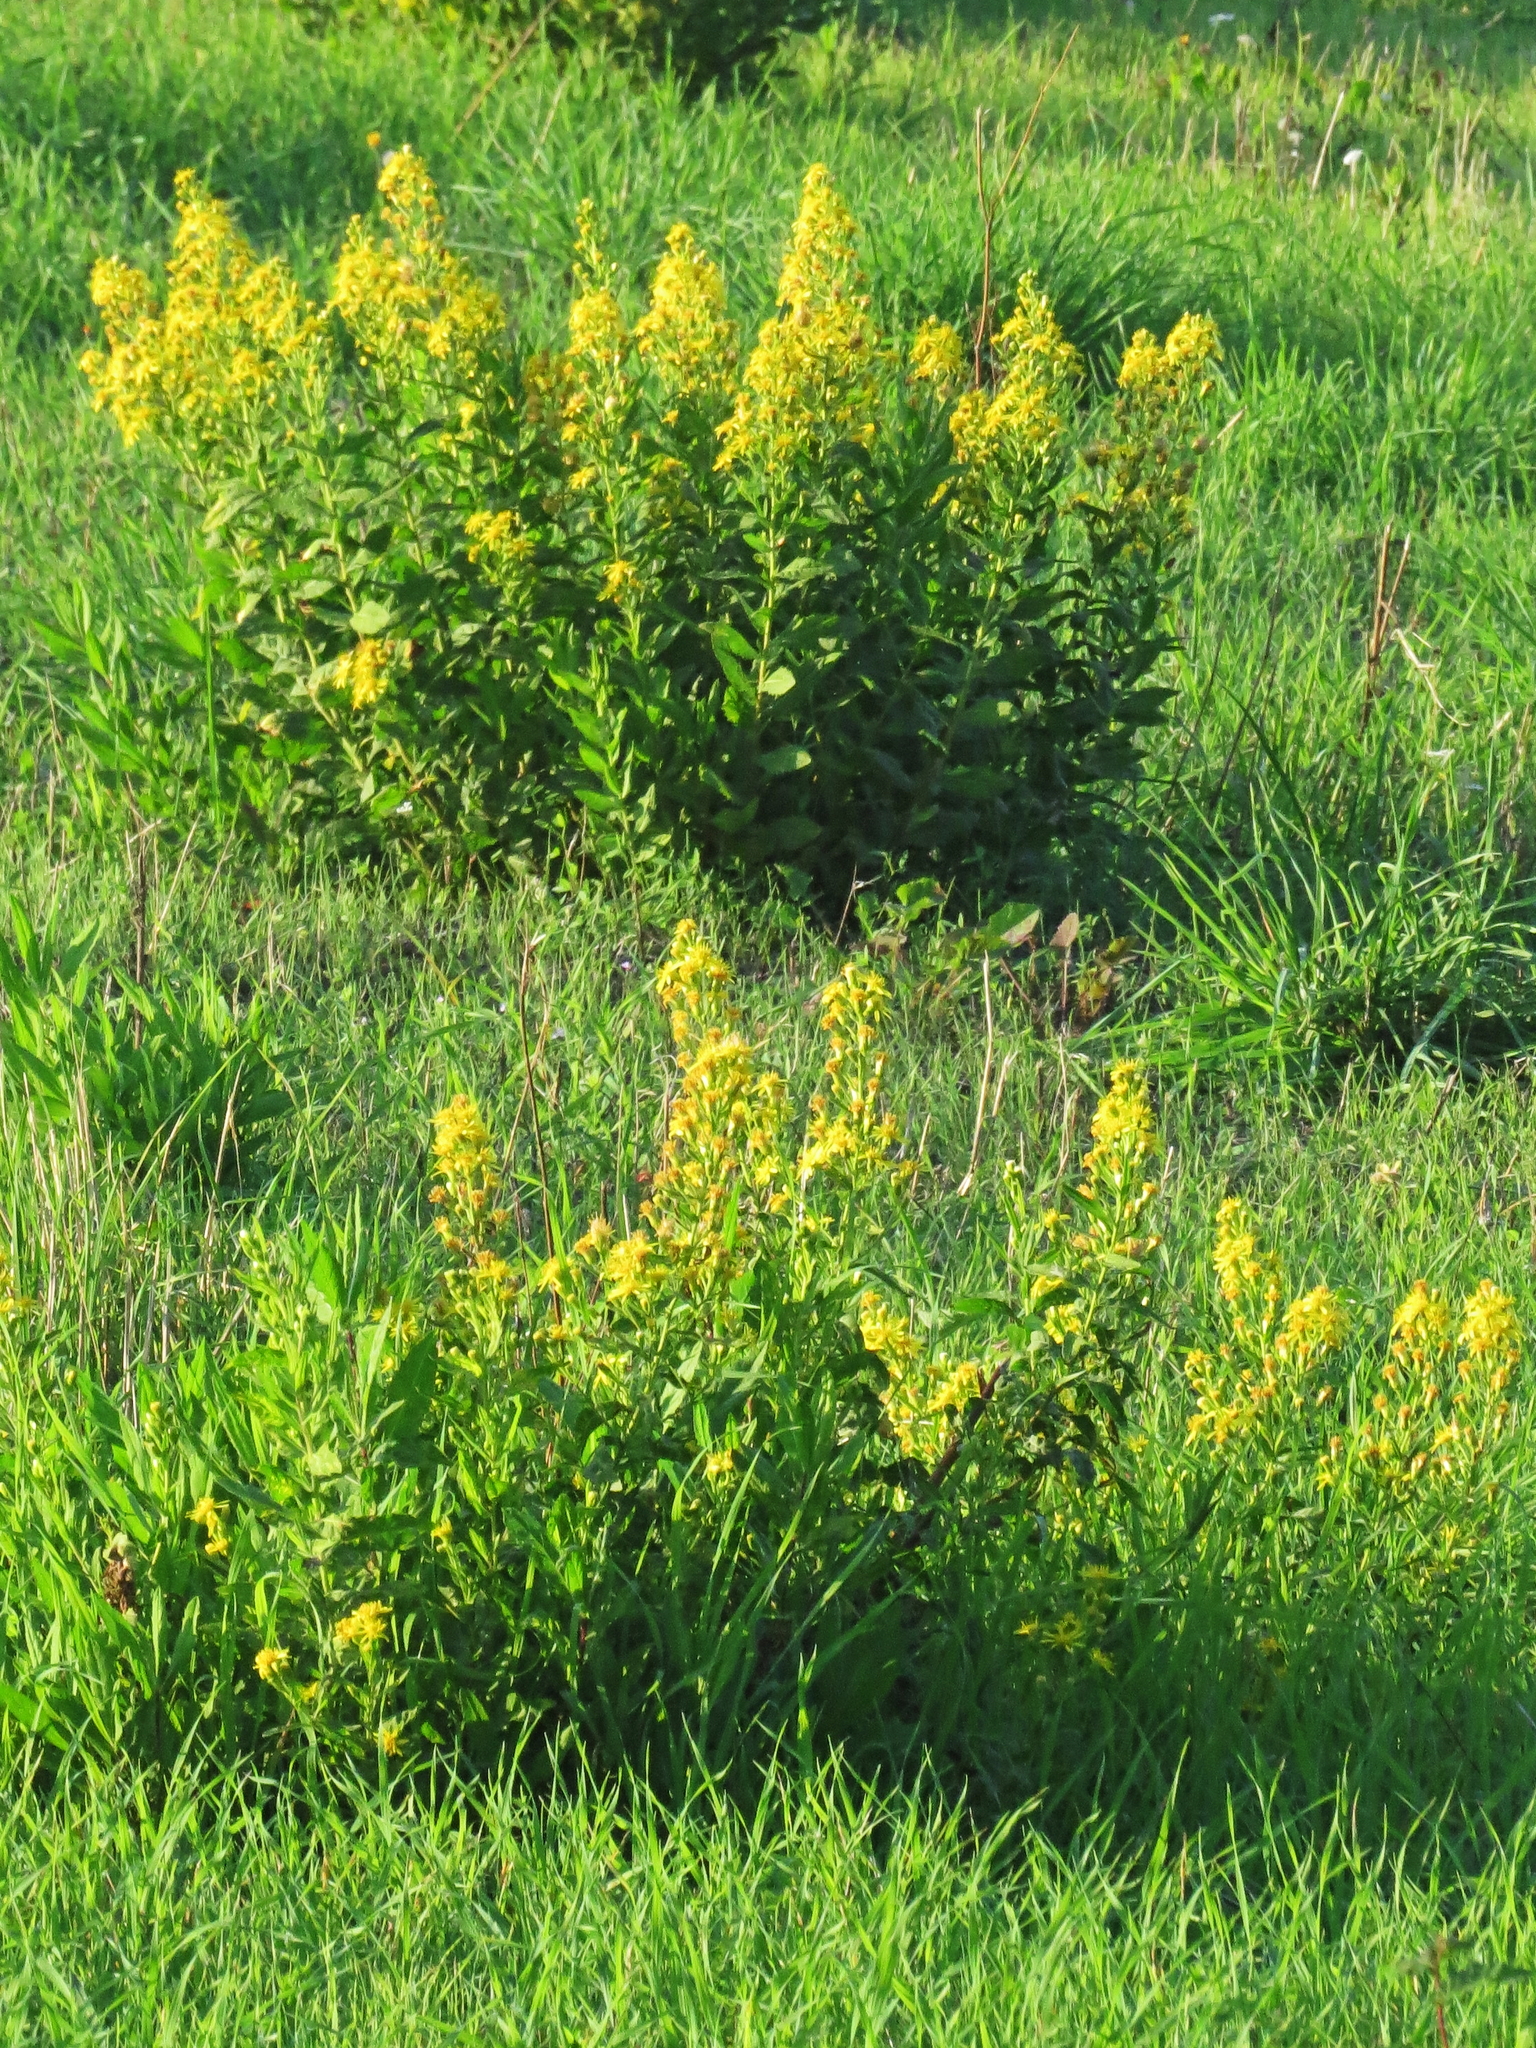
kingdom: Plantae
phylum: Tracheophyta
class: Magnoliopsida
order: Asterales
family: Asteraceae
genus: Dittrichia
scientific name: Dittrichia viscosa
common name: Woody fleabane
